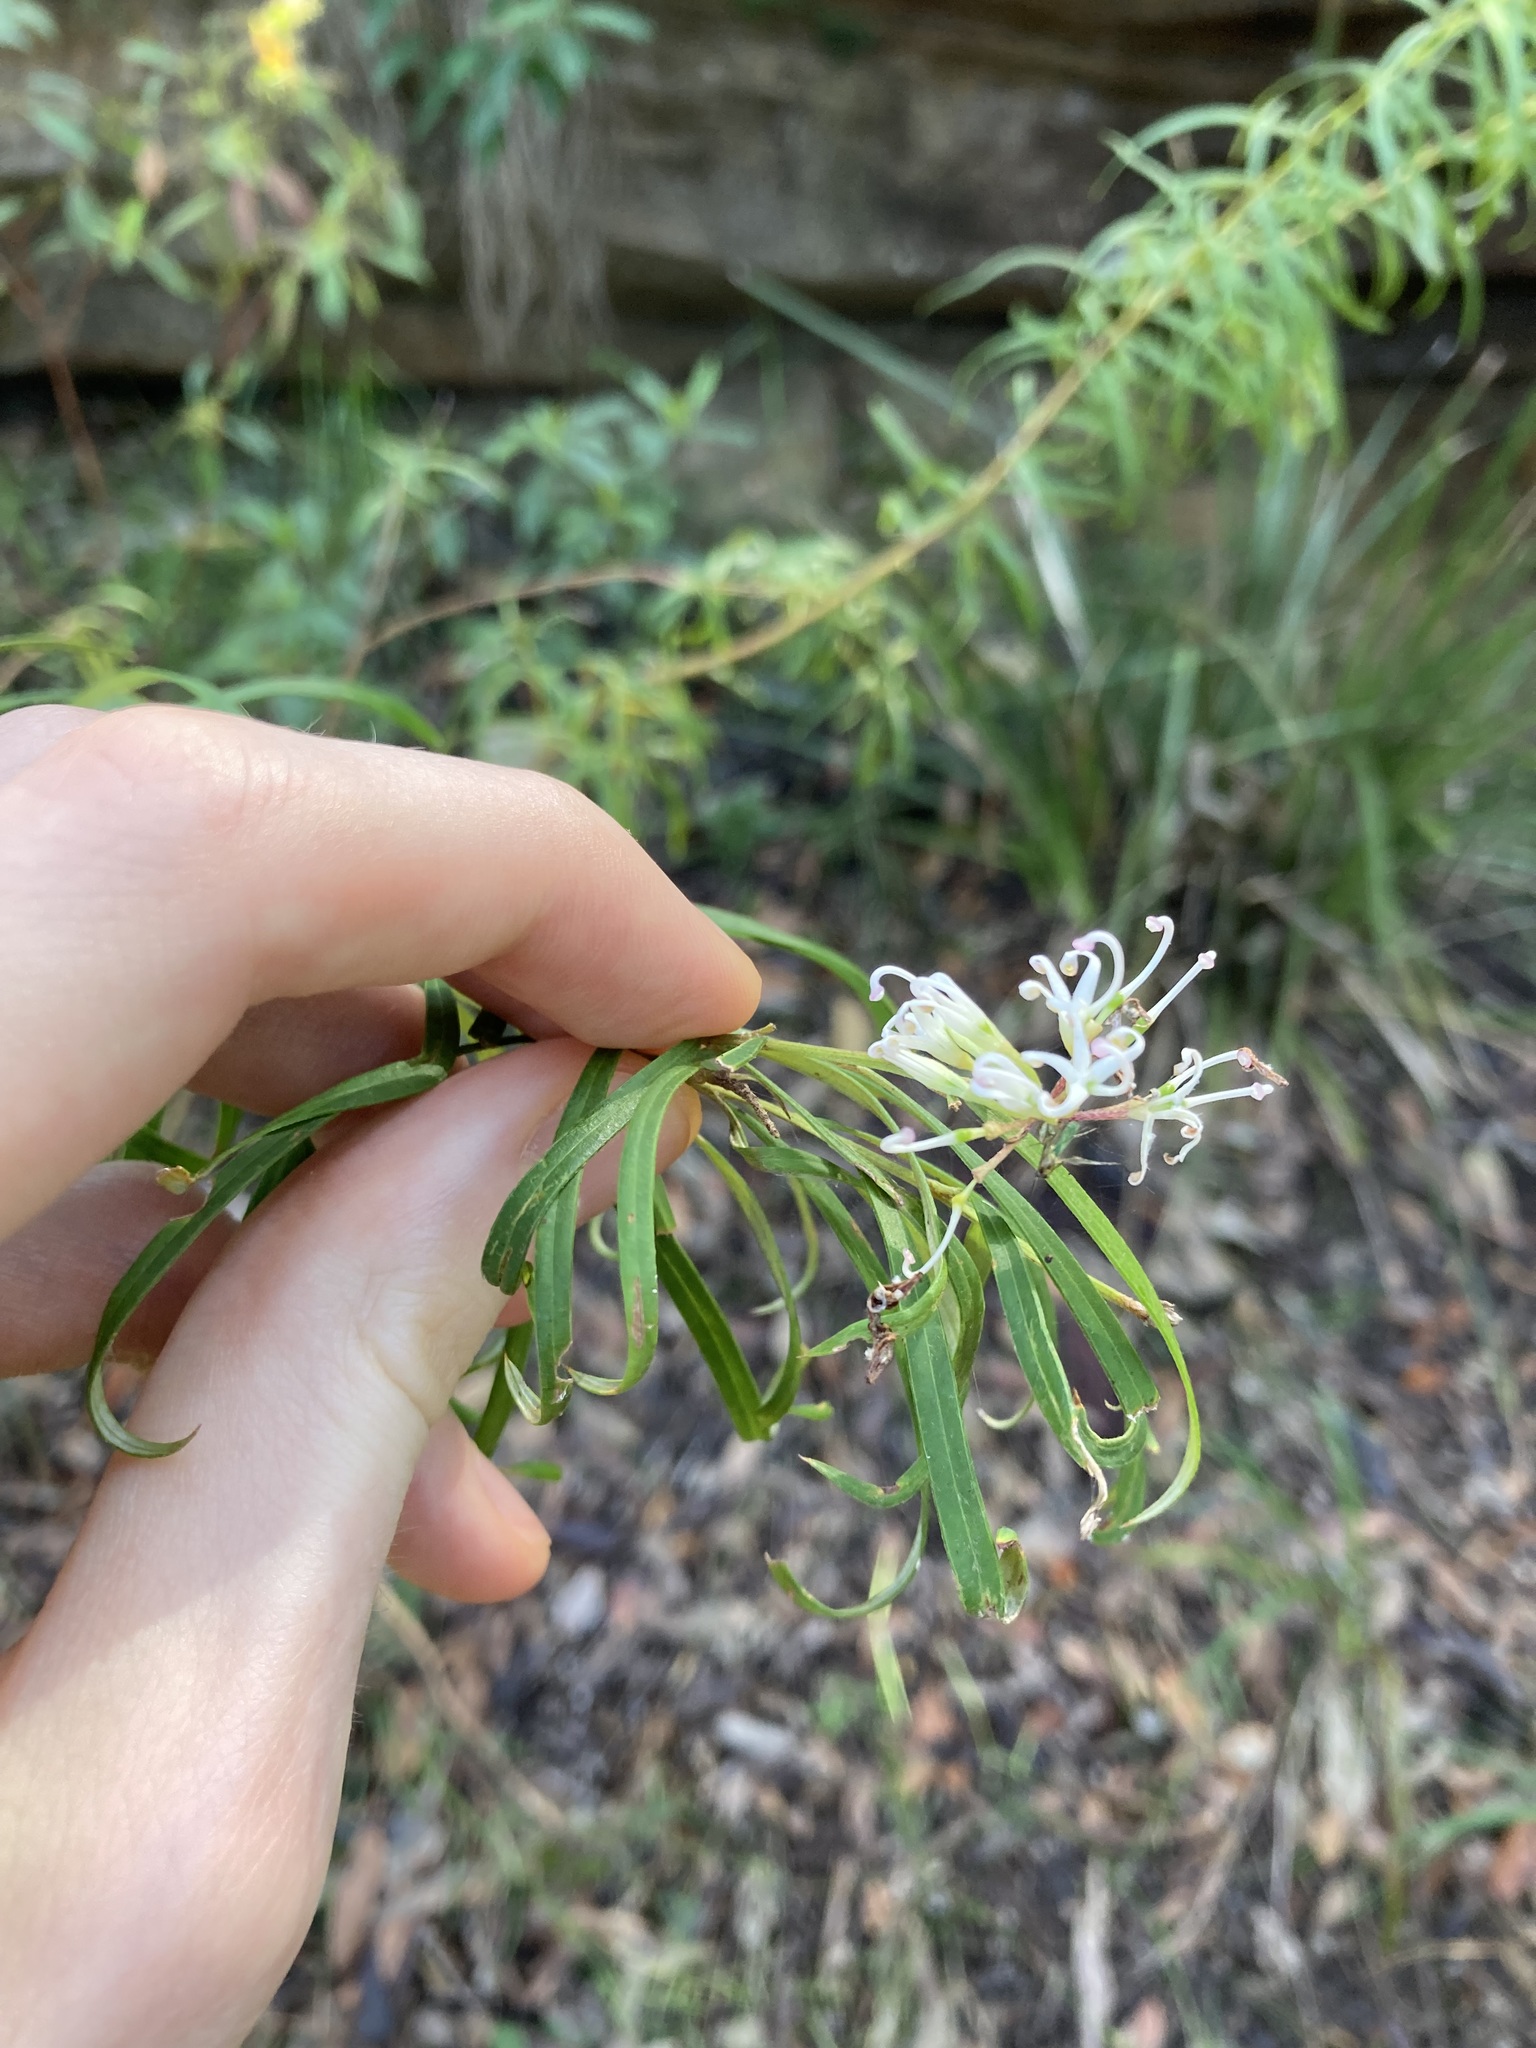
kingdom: Plantae
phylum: Tracheophyta
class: Magnoliopsida
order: Proteales
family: Proteaceae
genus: Grevillea
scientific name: Grevillea linearifolia
